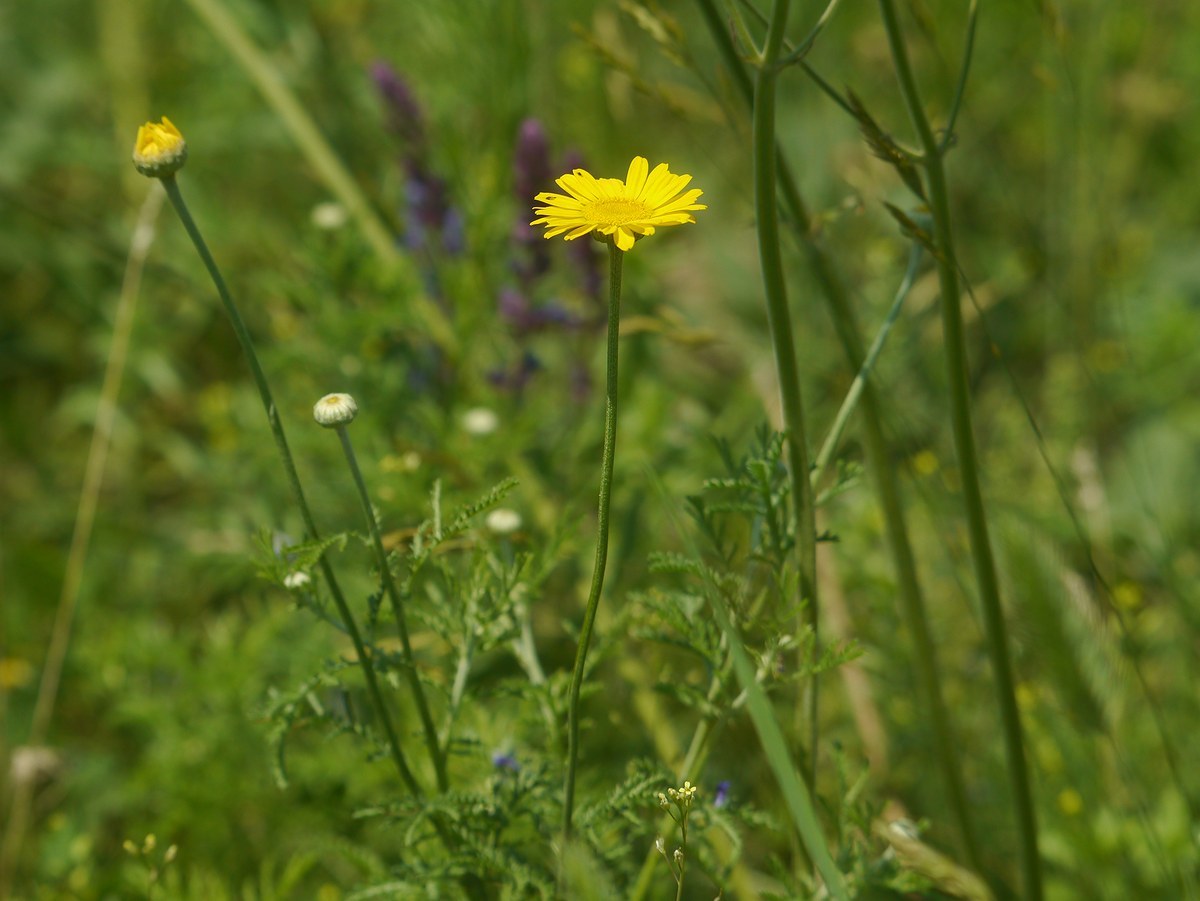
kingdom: Plantae
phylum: Tracheophyta
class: Magnoliopsida
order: Asterales
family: Asteraceae
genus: Cota
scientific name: Cota tinctoria
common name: Golden chamomile
